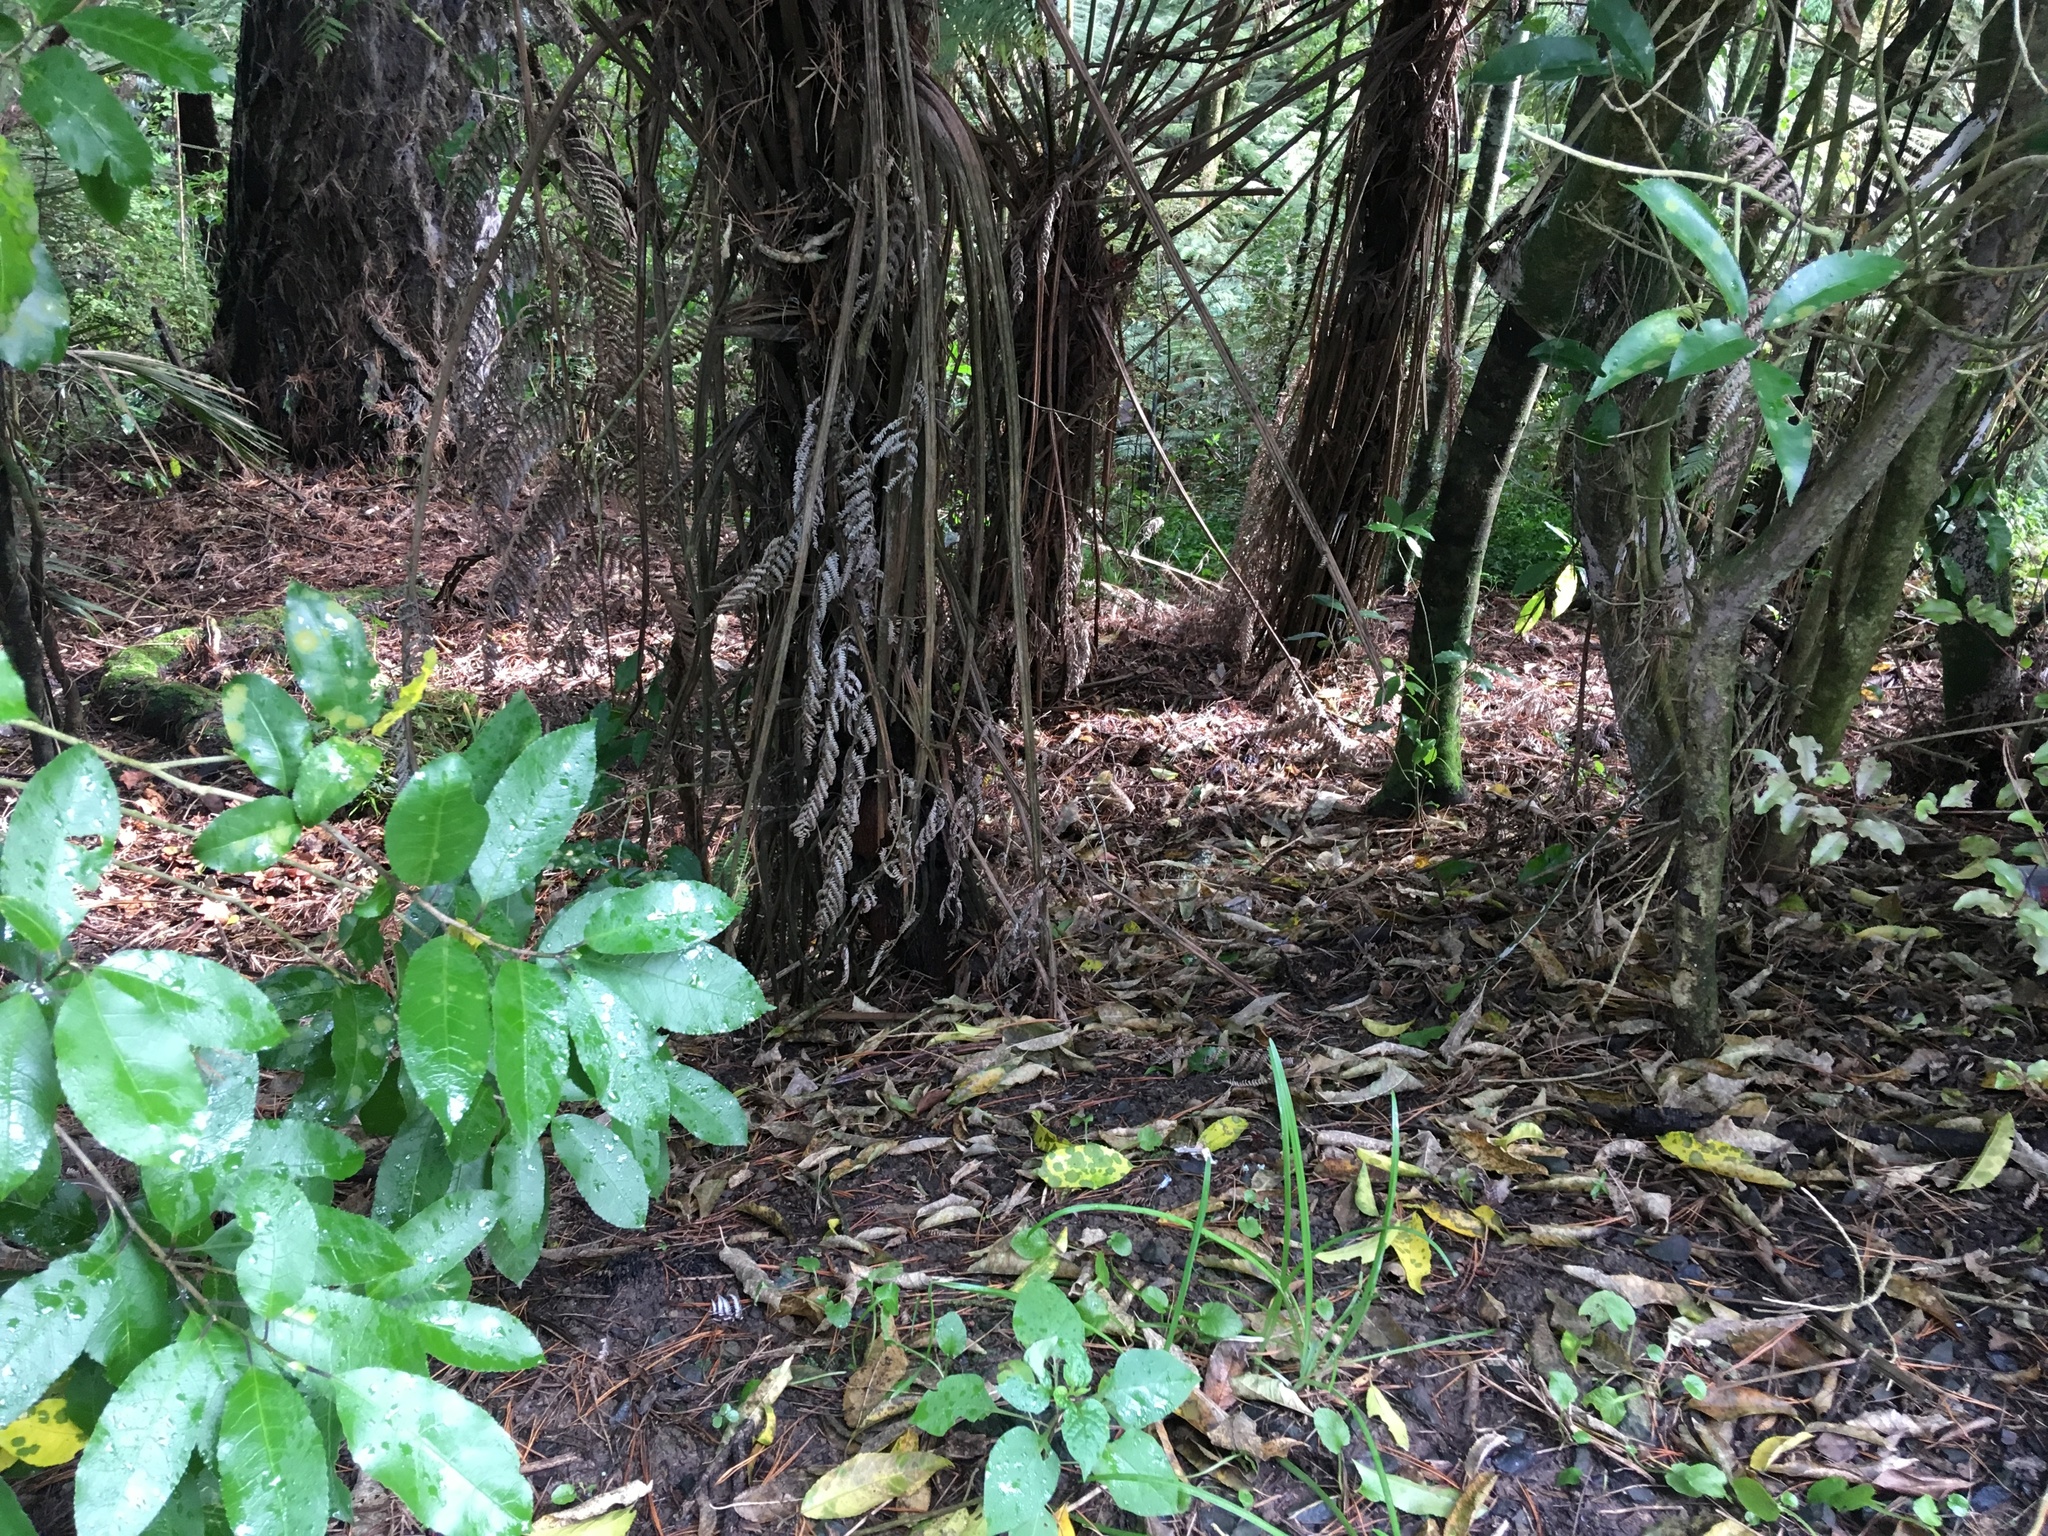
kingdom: Plantae
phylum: Tracheophyta
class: Magnoliopsida
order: Malpighiales
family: Violaceae
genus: Melicytus
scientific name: Melicytus ramiflorus
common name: Mahoe
